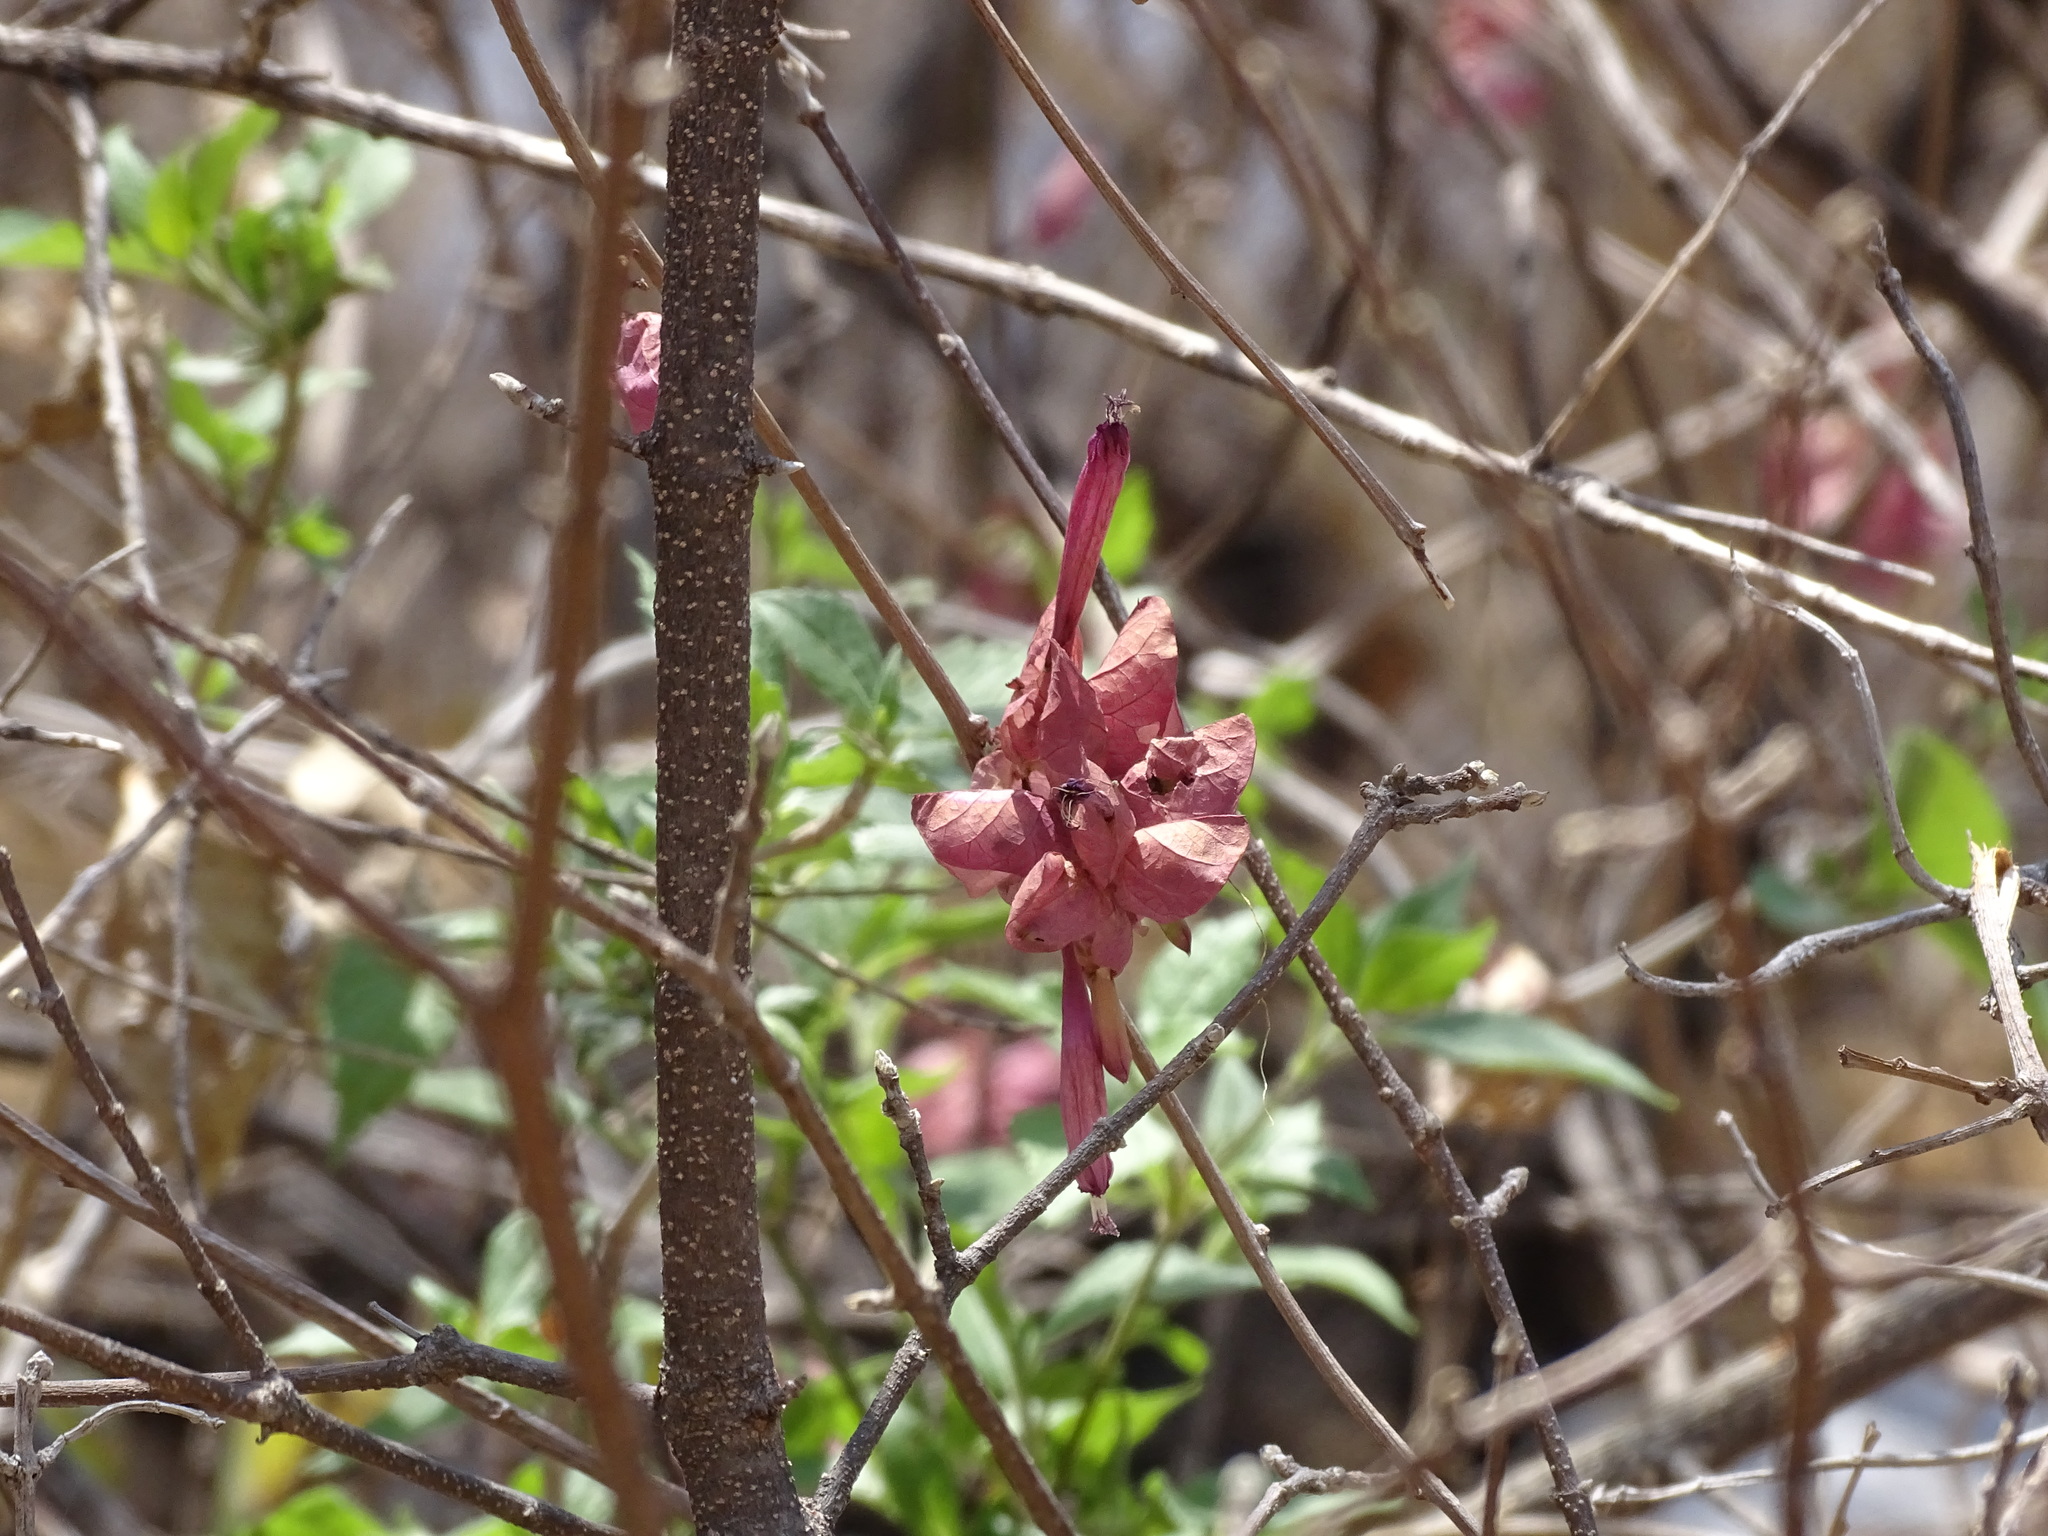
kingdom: Plantae
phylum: Tracheophyta
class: Magnoliopsida
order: Solanales
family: Convolvulaceae
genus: Ipomoea
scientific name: Ipomoea bracteata
